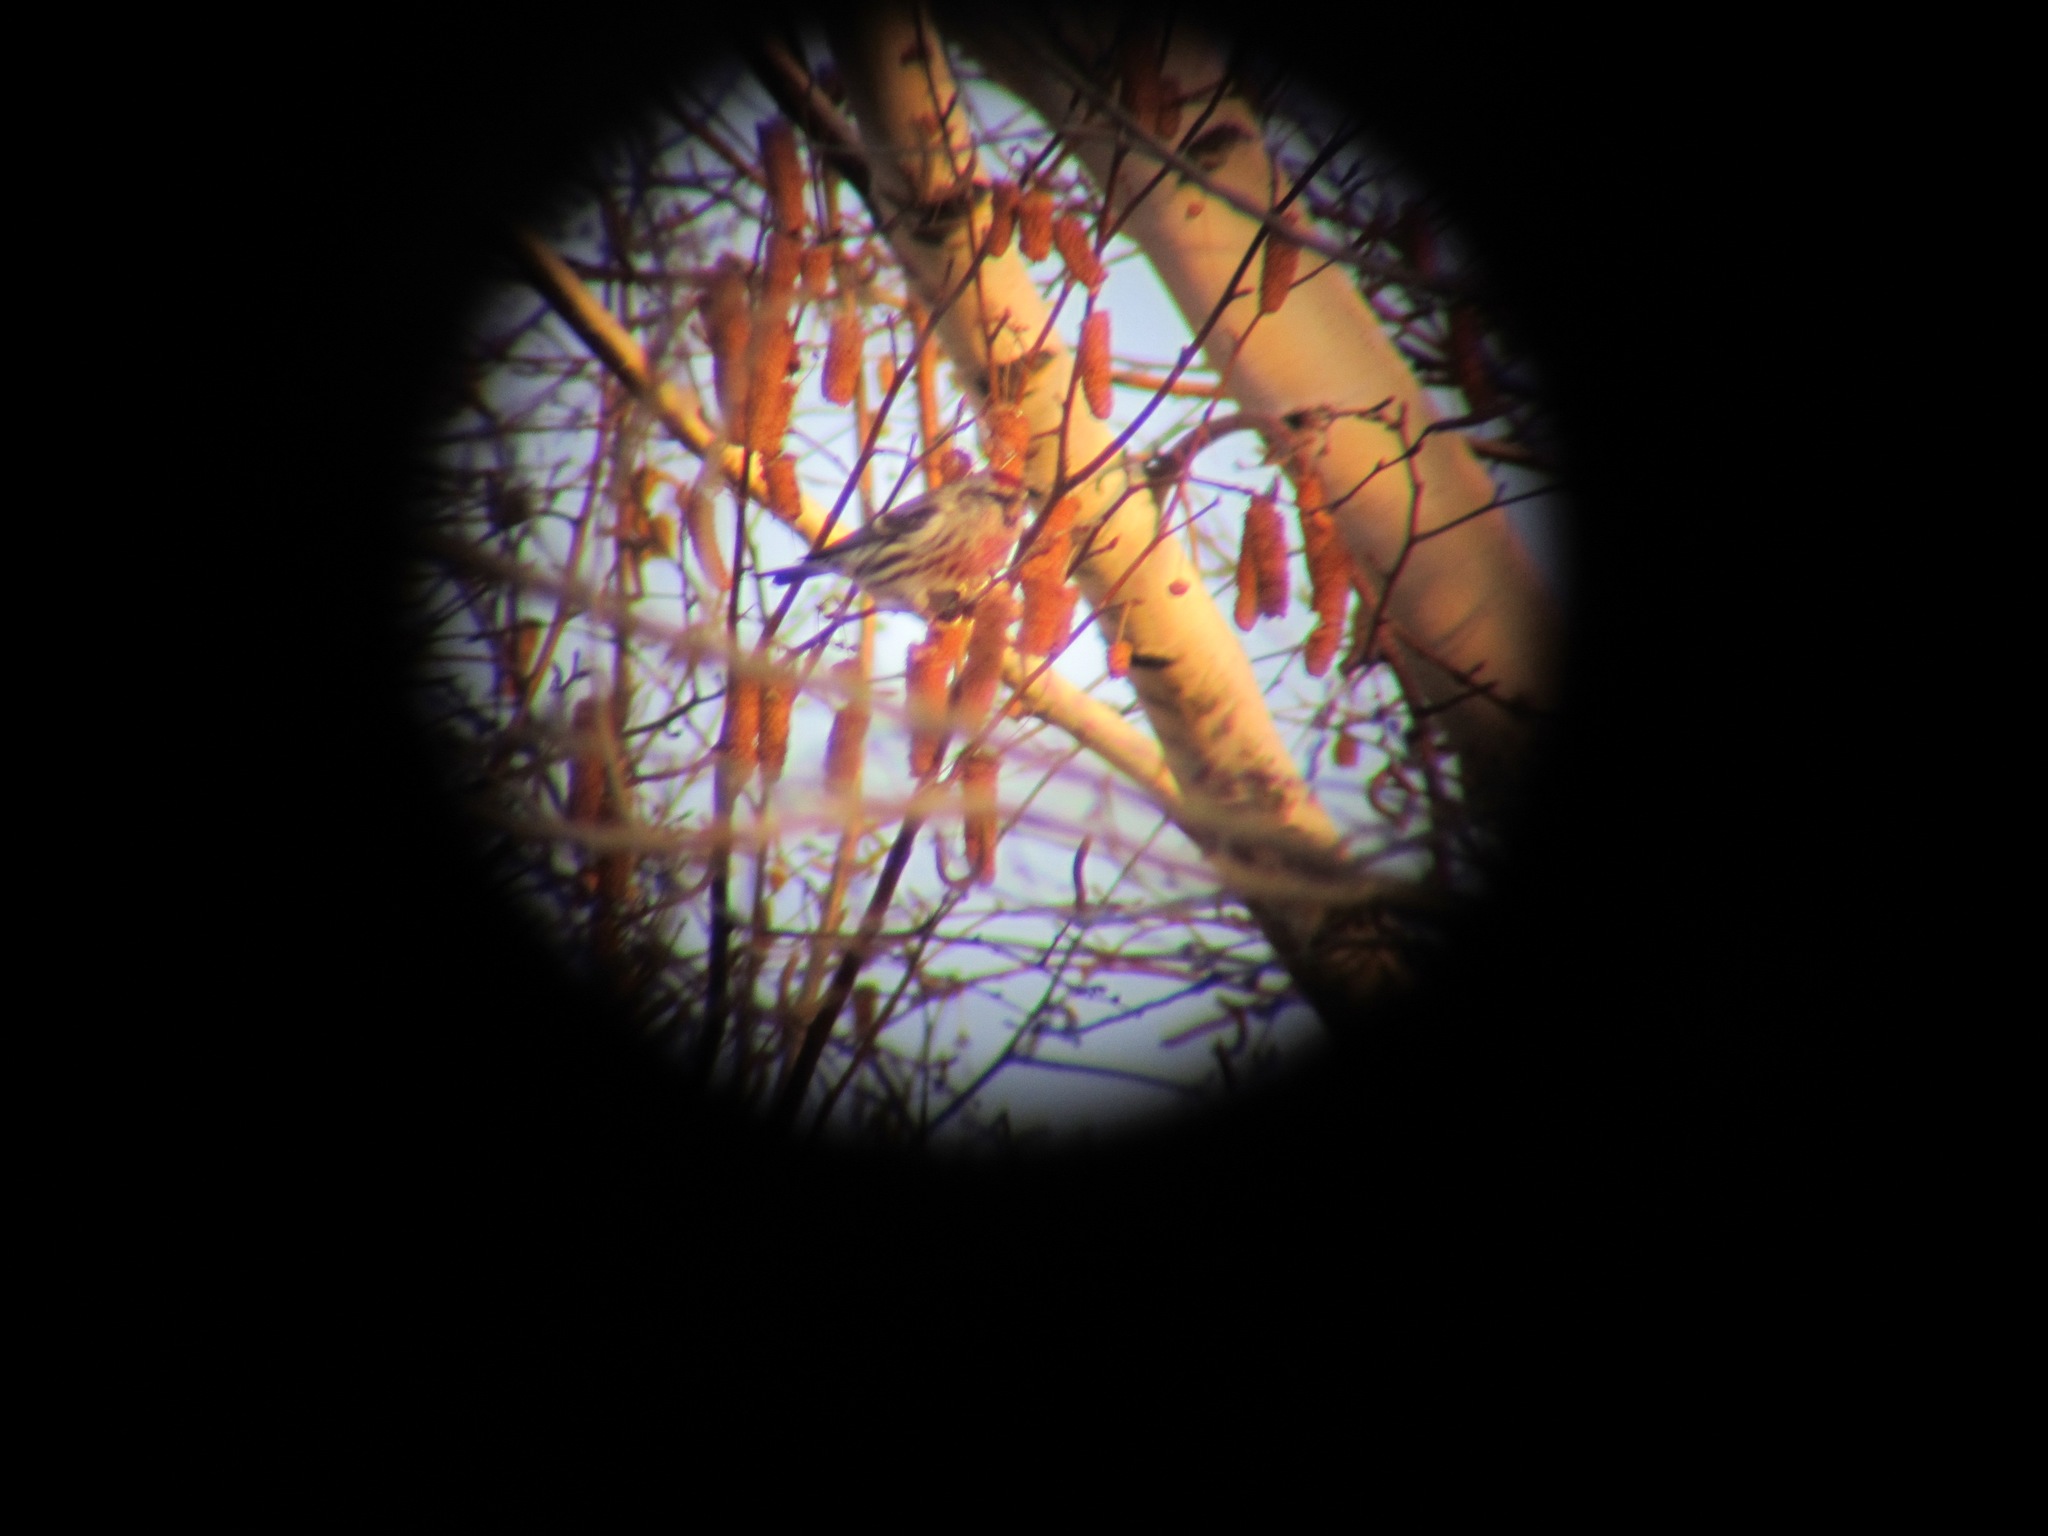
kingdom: Animalia
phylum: Chordata
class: Aves
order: Passeriformes
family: Fringillidae
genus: Acanthis
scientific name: Acanthis flammea
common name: Common redpoll
